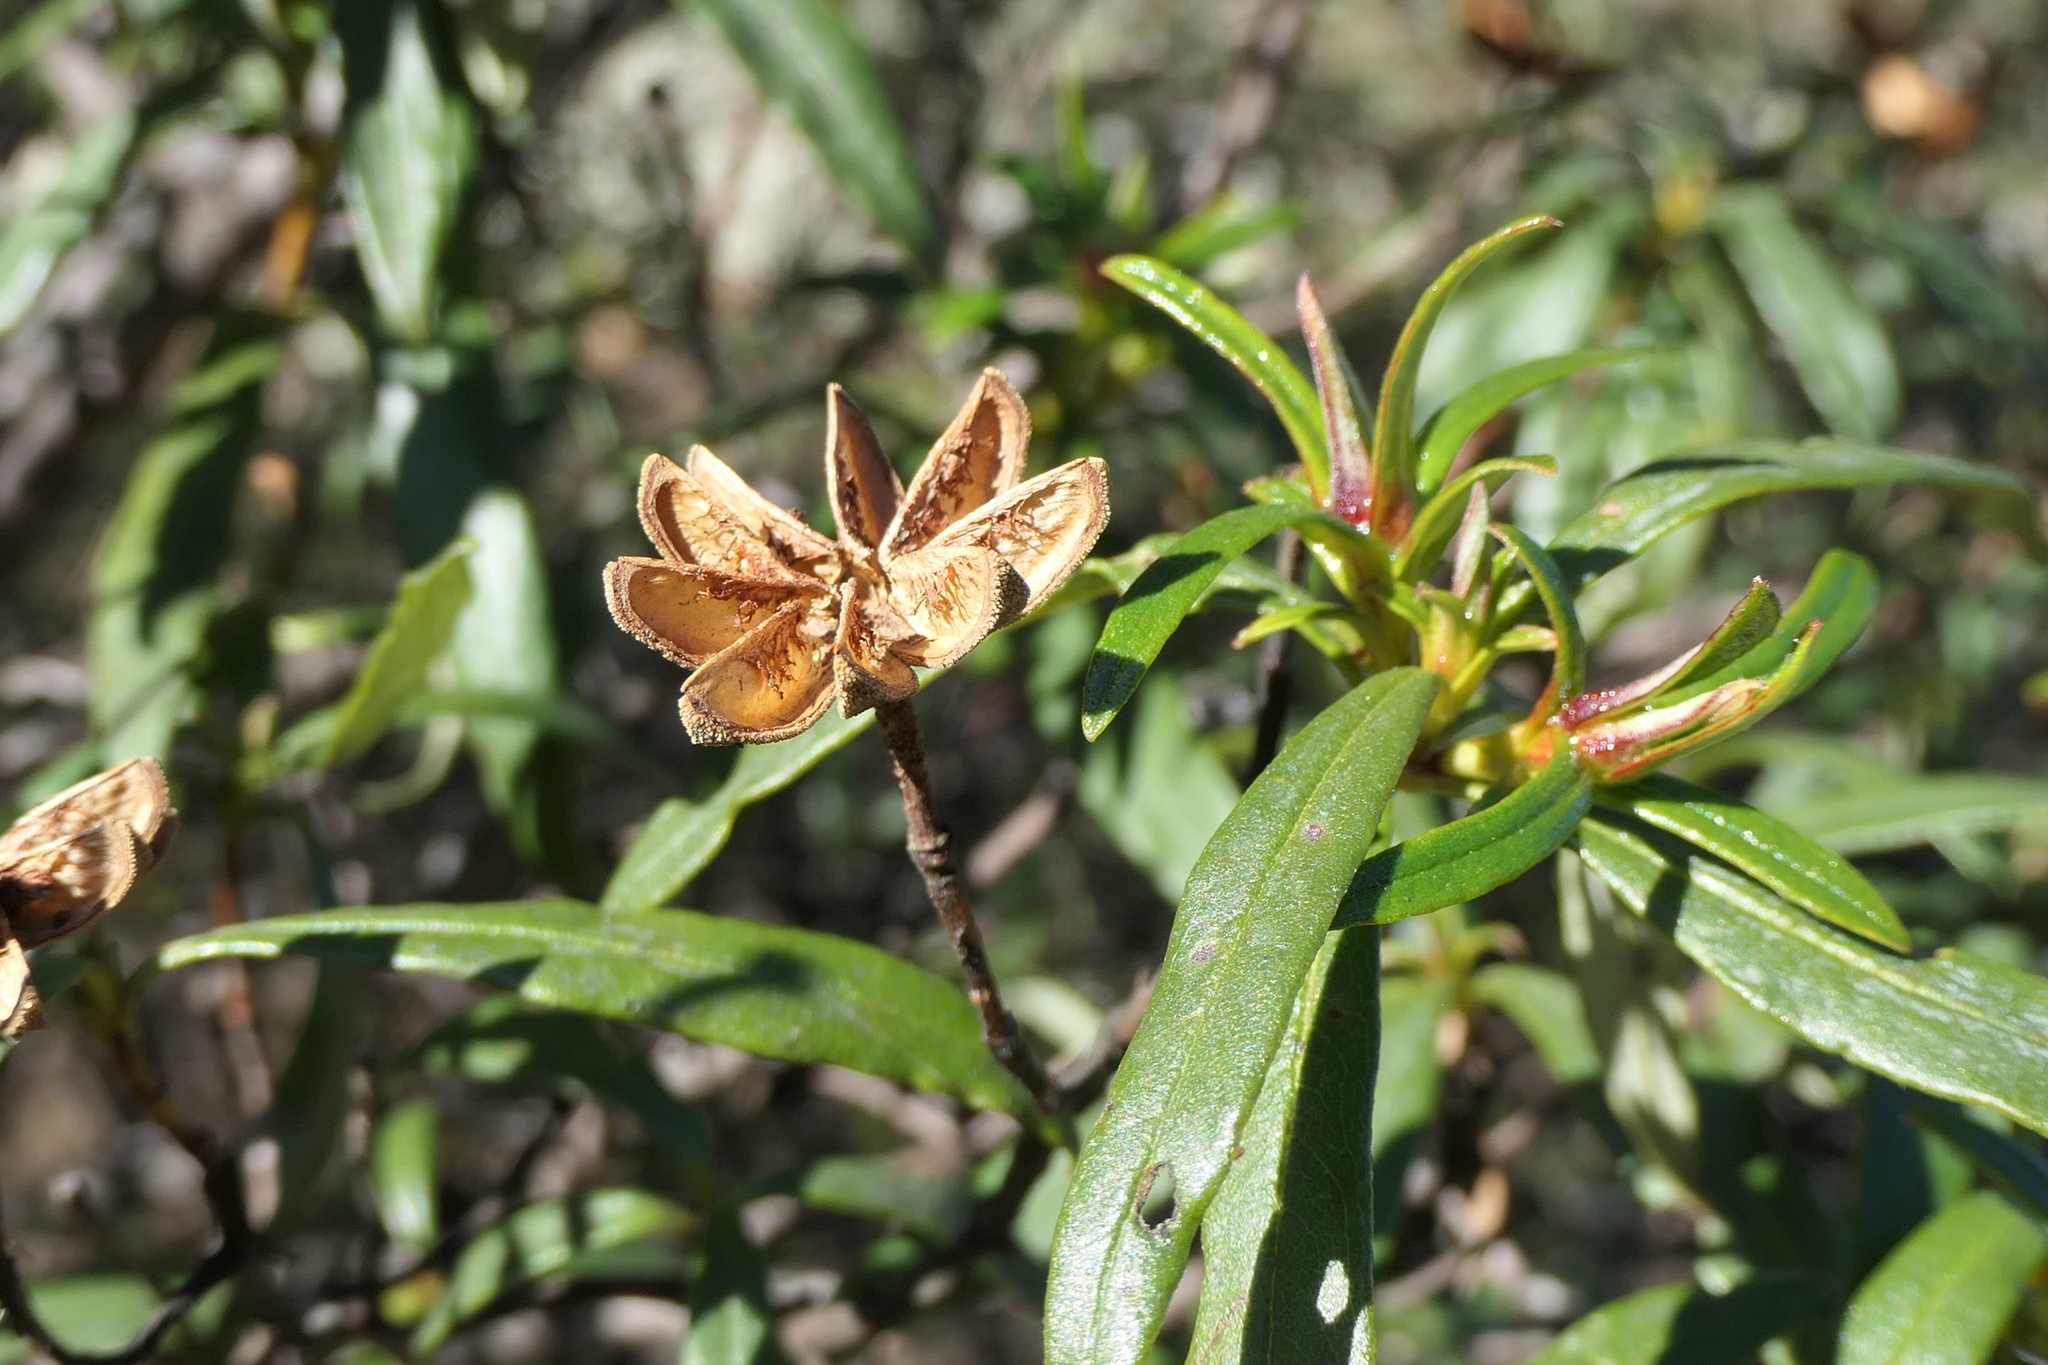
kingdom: Plantae
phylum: Tracheophyta
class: Magnoliopsida
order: Malvales
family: Cistaceae
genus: Cistus
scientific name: Cistus ladanifer
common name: Common gum cistus
